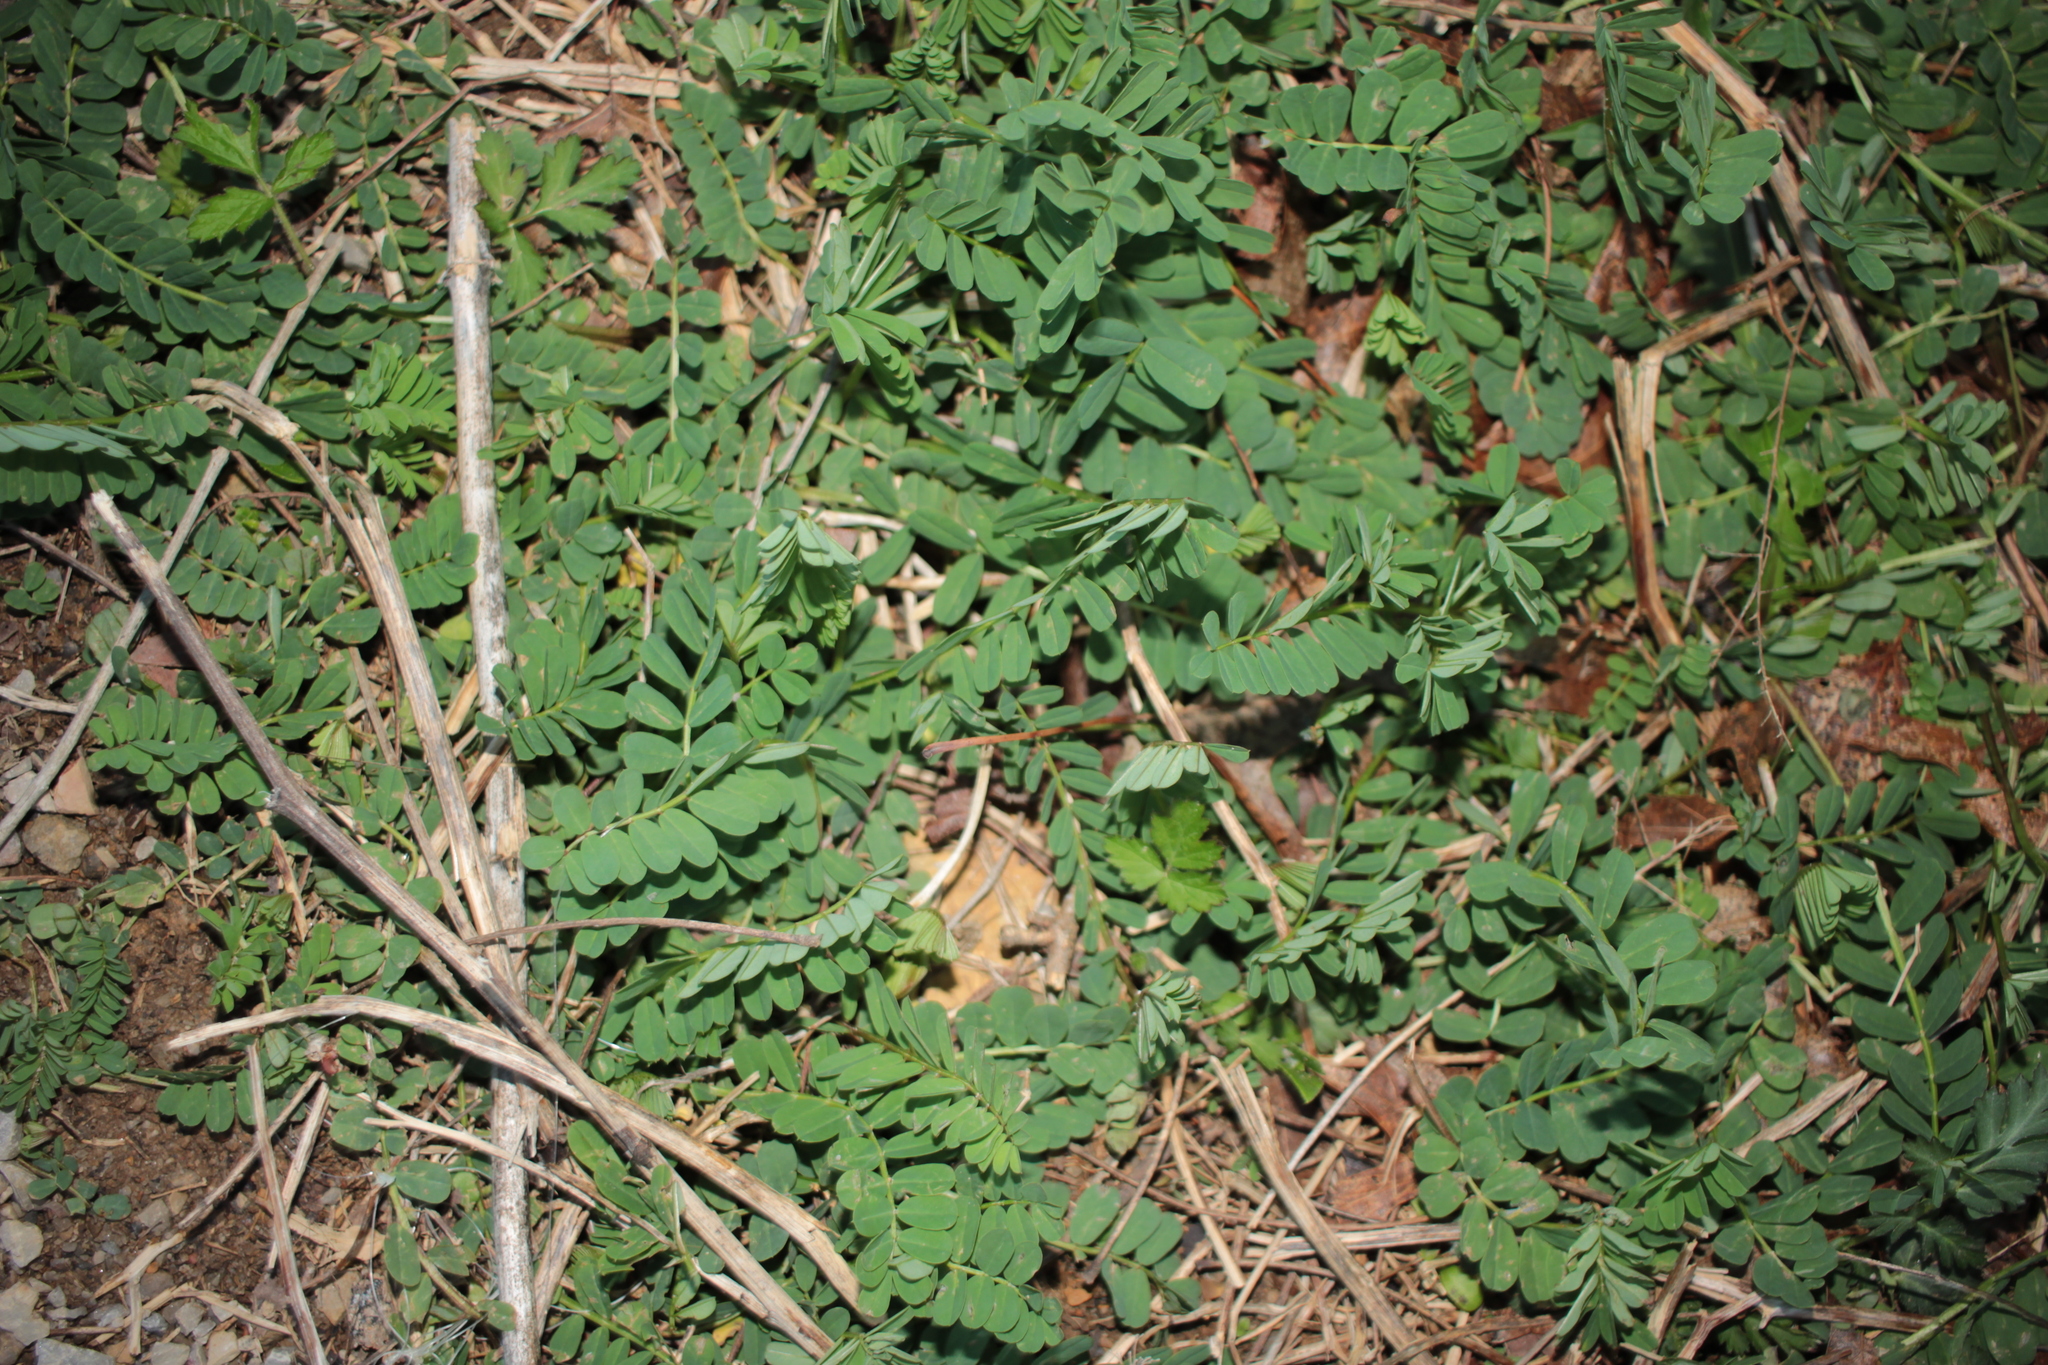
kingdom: Plantae
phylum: Tracheophyta
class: Magnoliopsida
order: Fabales
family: Fabaceae
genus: Coronilla
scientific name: Coronilla varia
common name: Crownvetch
